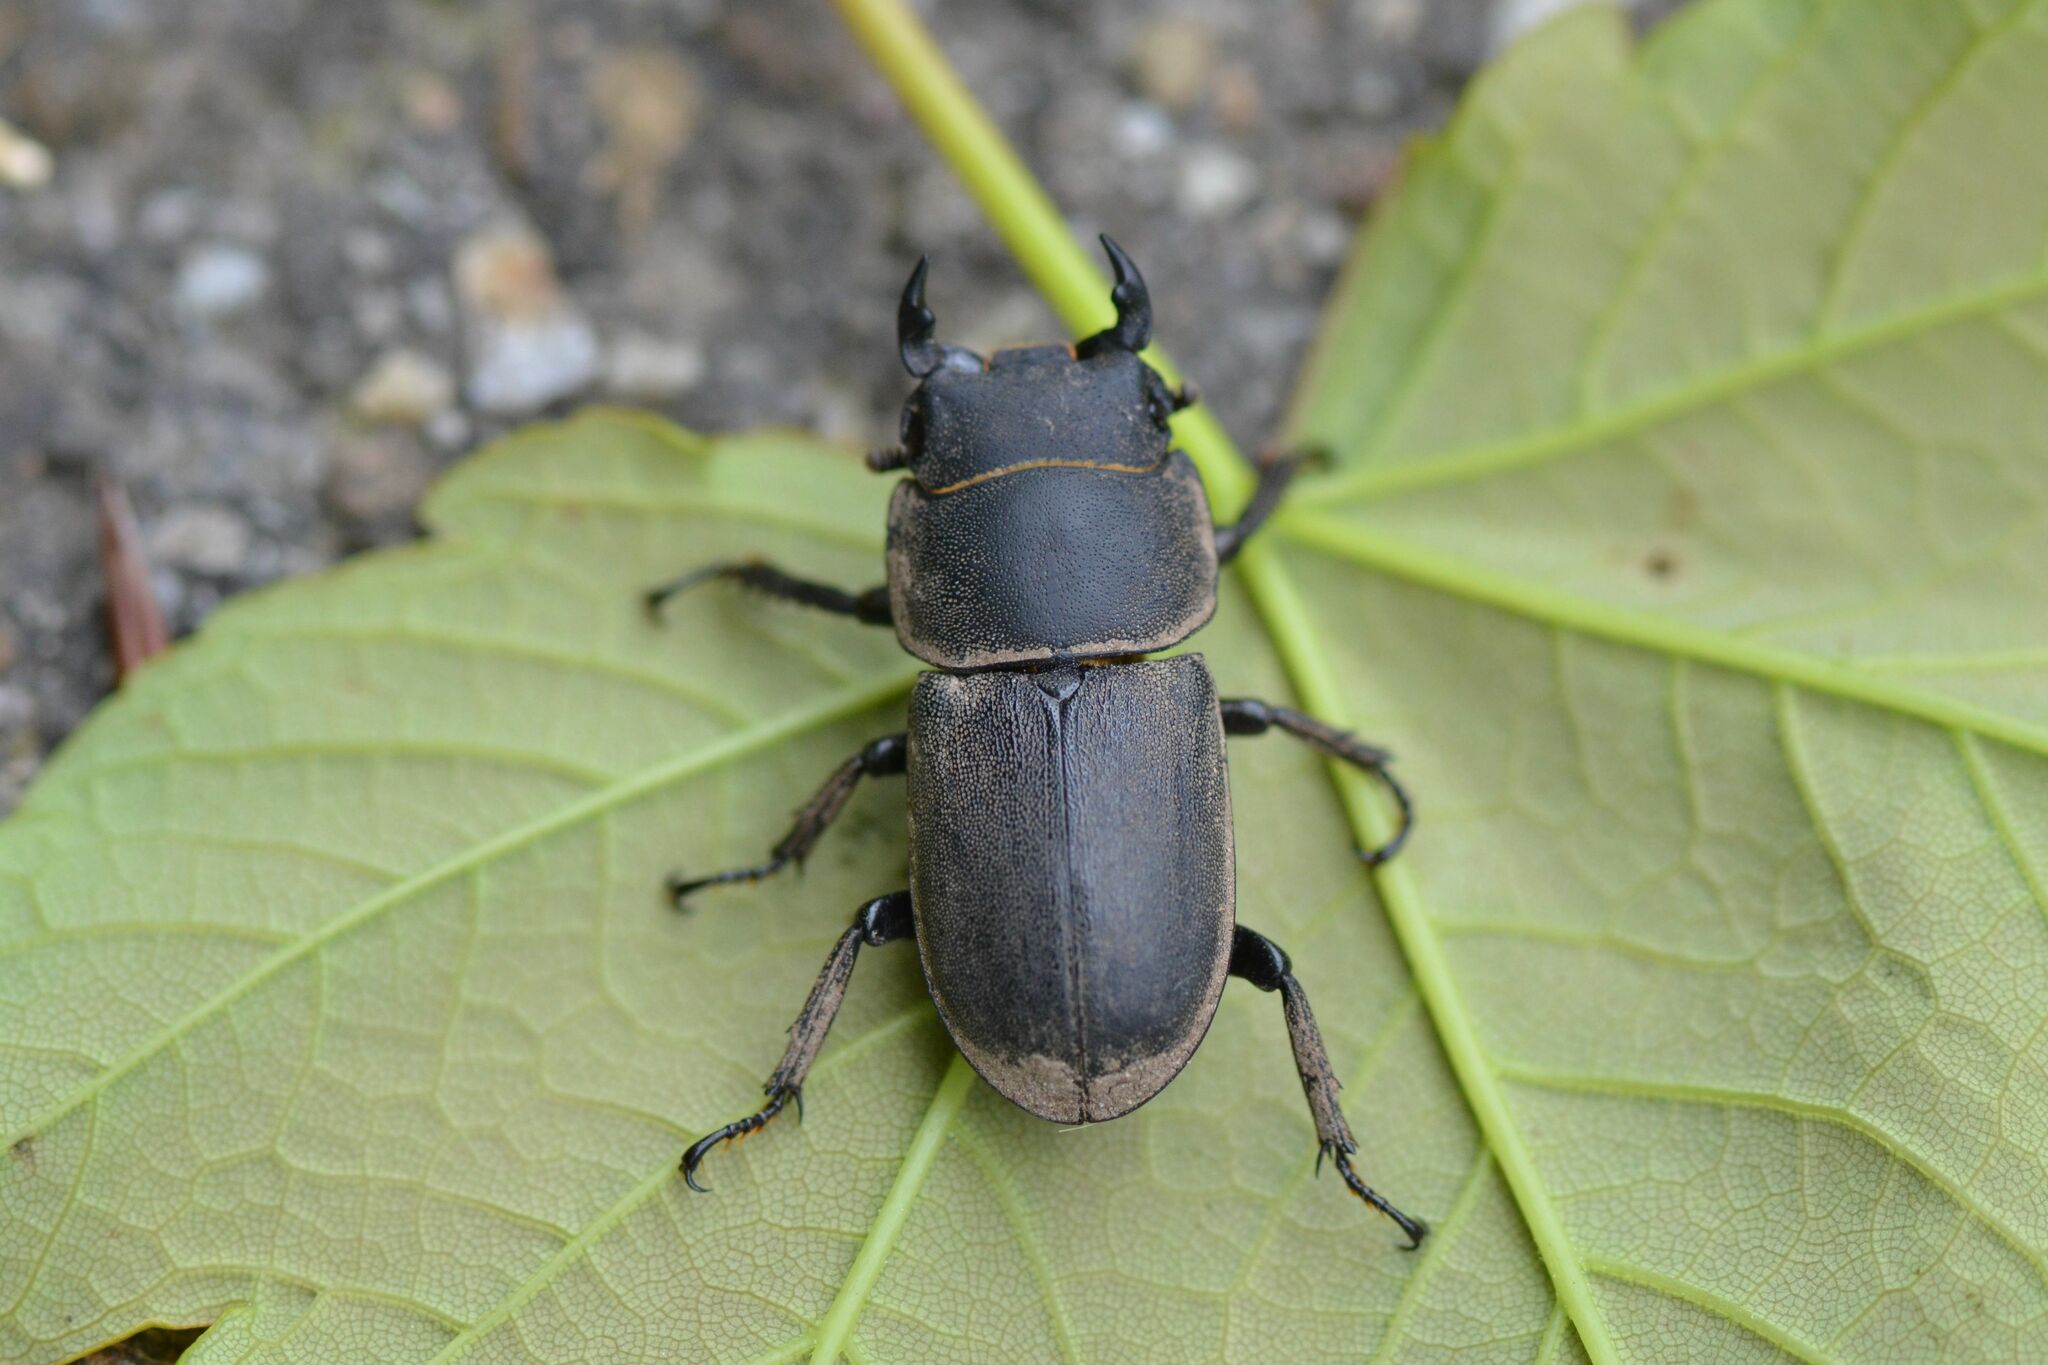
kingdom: Animalia
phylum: Arthropoda
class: Insecta
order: Coleoptera
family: Lucanidae
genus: Dorcus
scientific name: Dorcus parallelipipedus
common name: Lesser stag beetle
